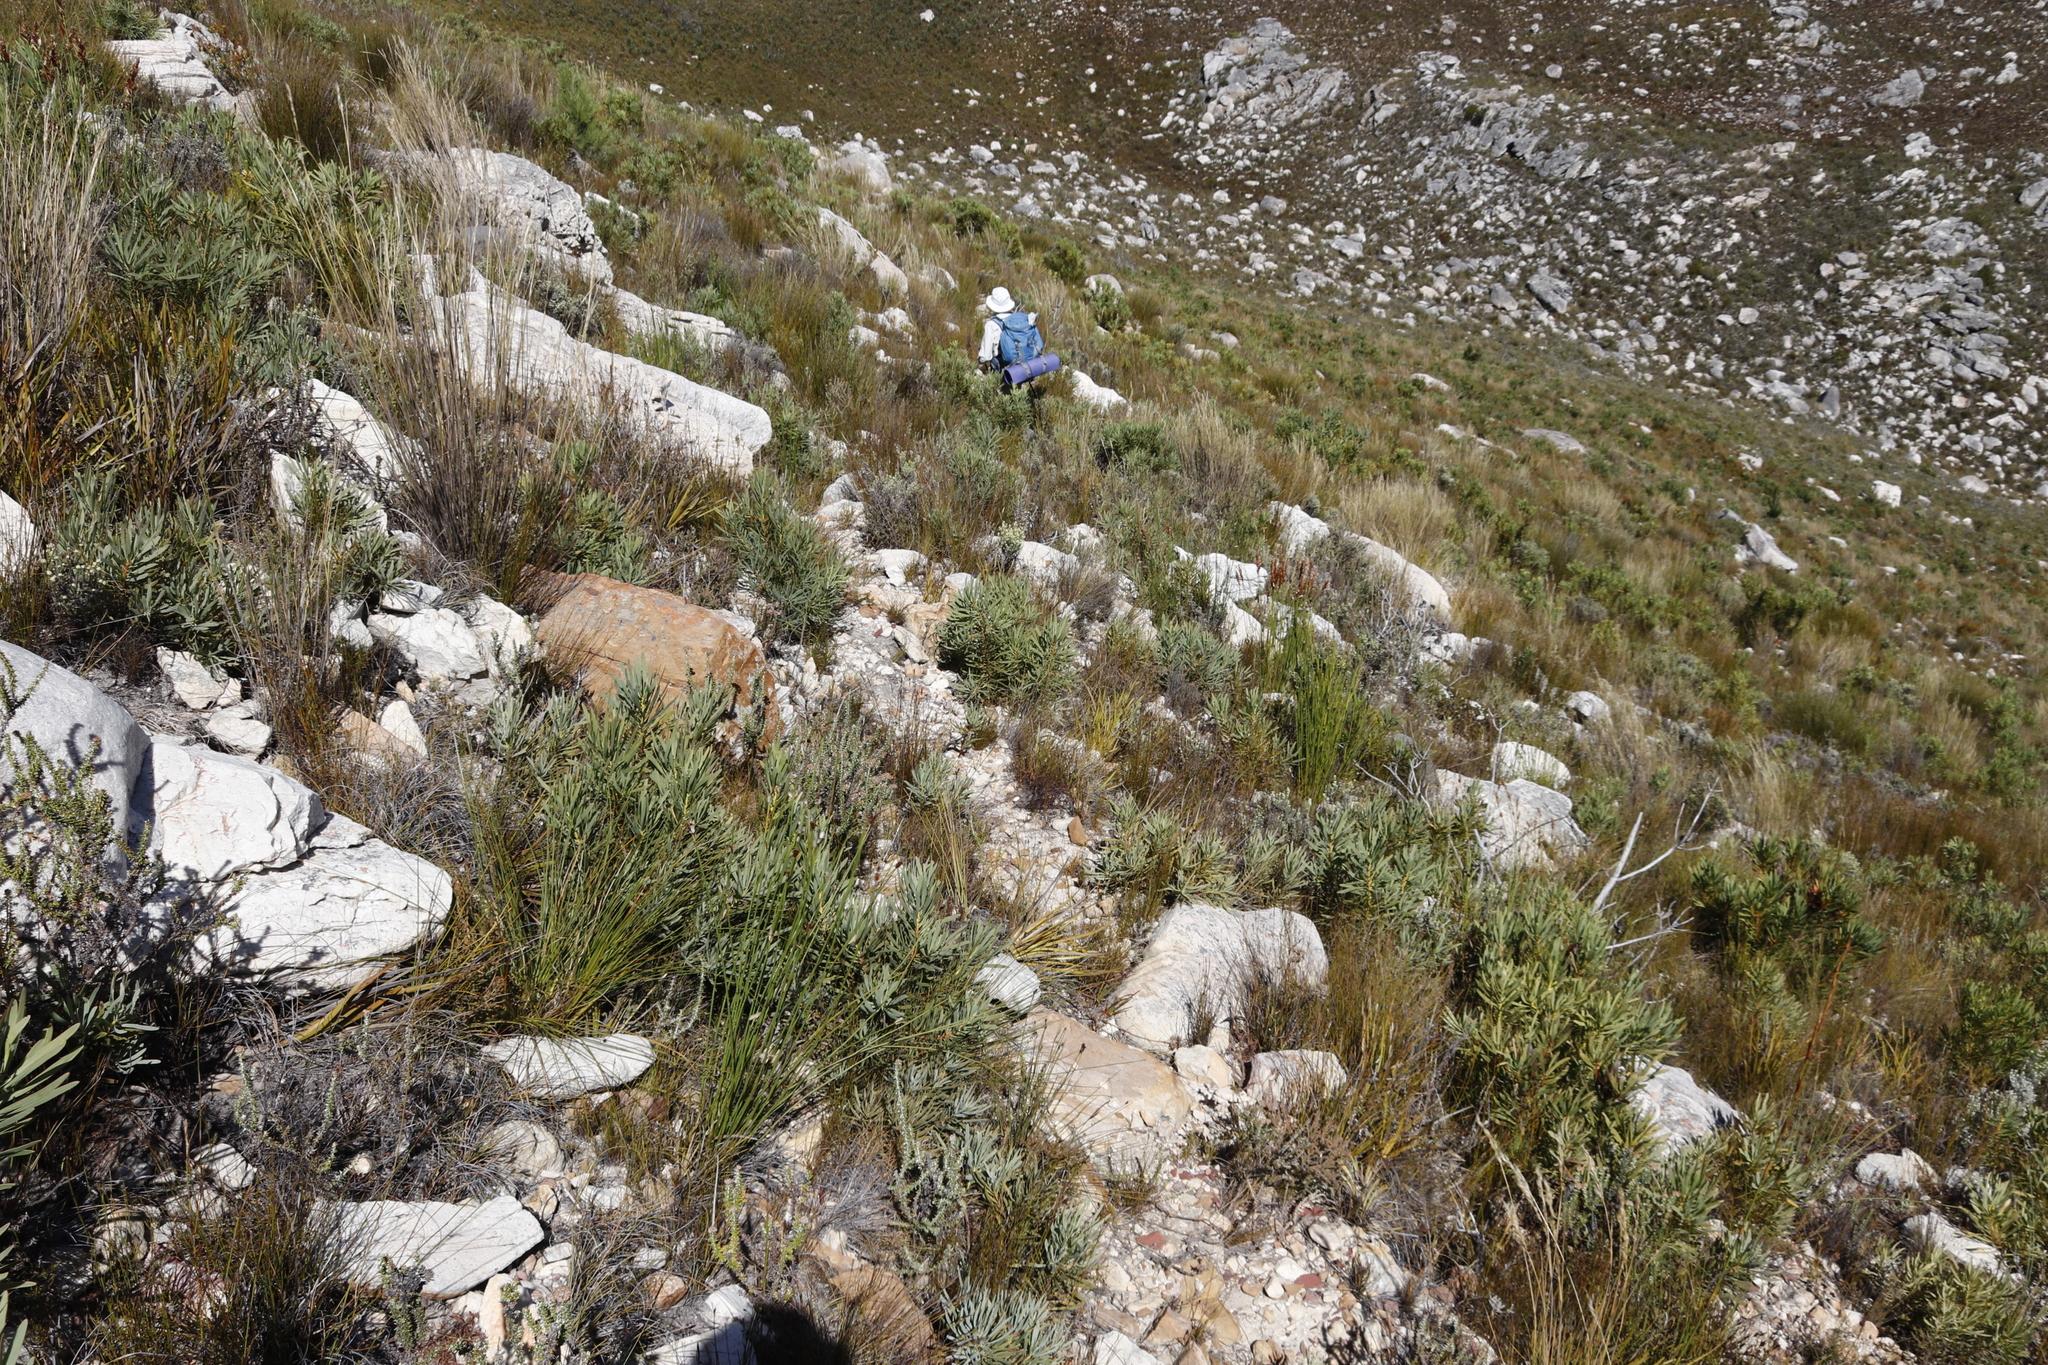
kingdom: Plantae
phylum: Tracheophyta
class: Magnoliopsida
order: Proteales
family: Proteaceae
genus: Protea
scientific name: Protea repens
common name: Sugarbush
